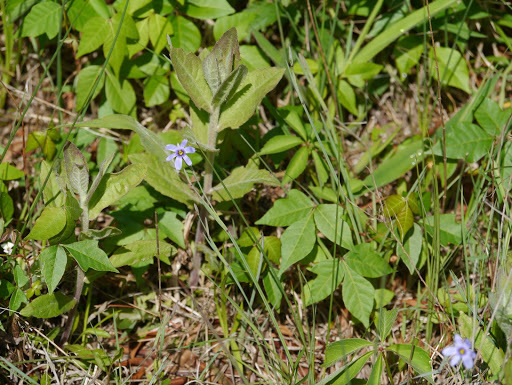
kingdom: Plantae
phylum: Tracheophyta
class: Liliopsida
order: Asparagales
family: Iridaceae
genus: Sisyrinchium
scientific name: Sisyrinchium
